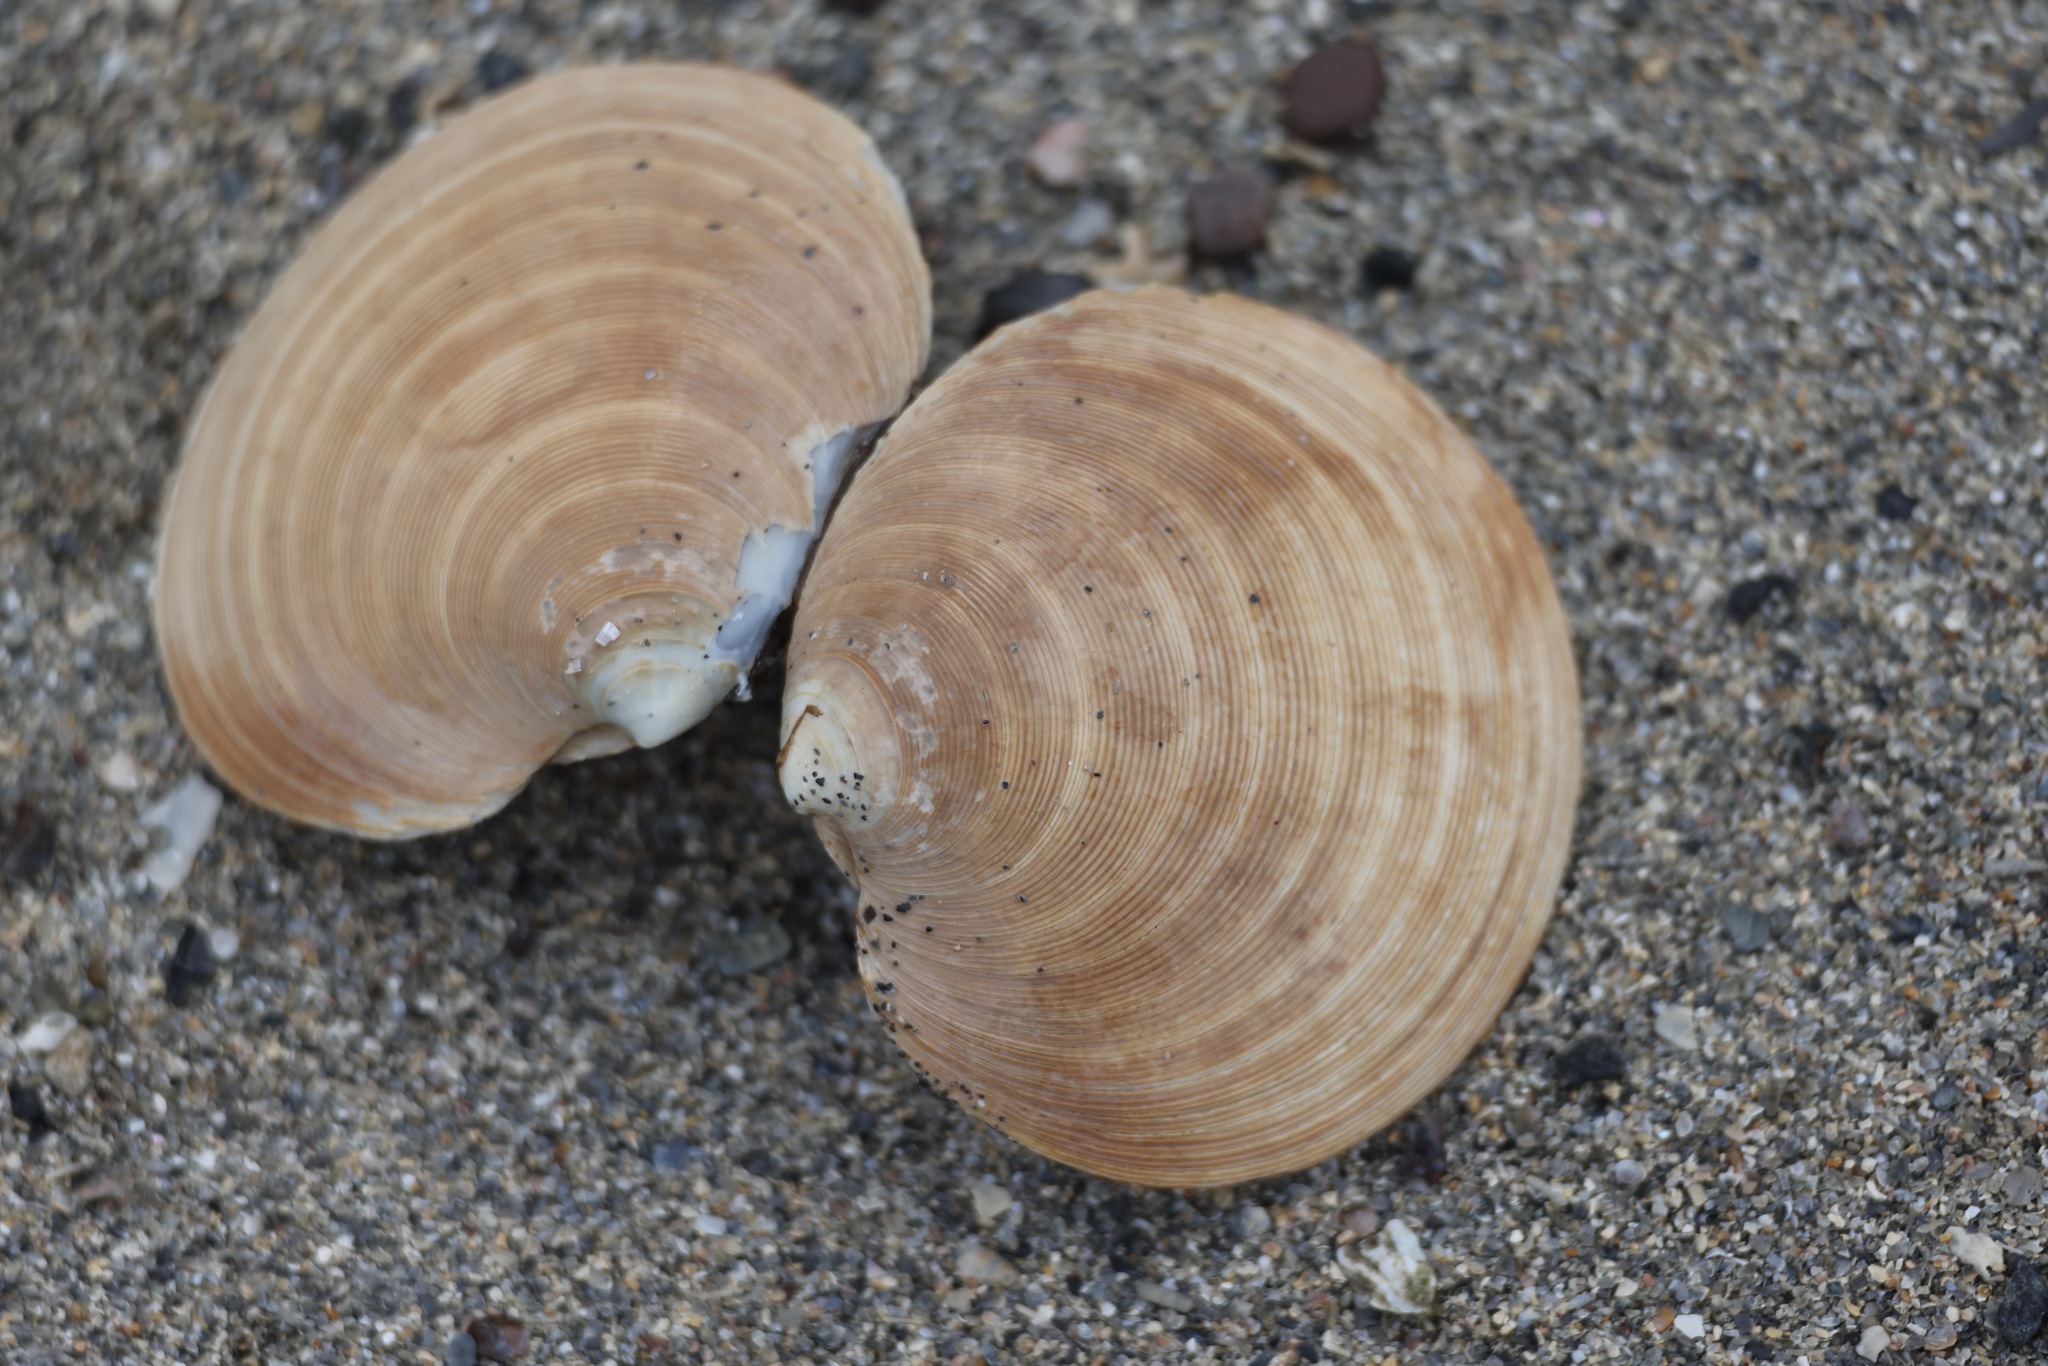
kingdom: Animalia
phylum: Mollusca
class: Bivalvia
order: Venerida
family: Veneridae
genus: Dosinia
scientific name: Dosinia exoleta
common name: Rayed artemis
